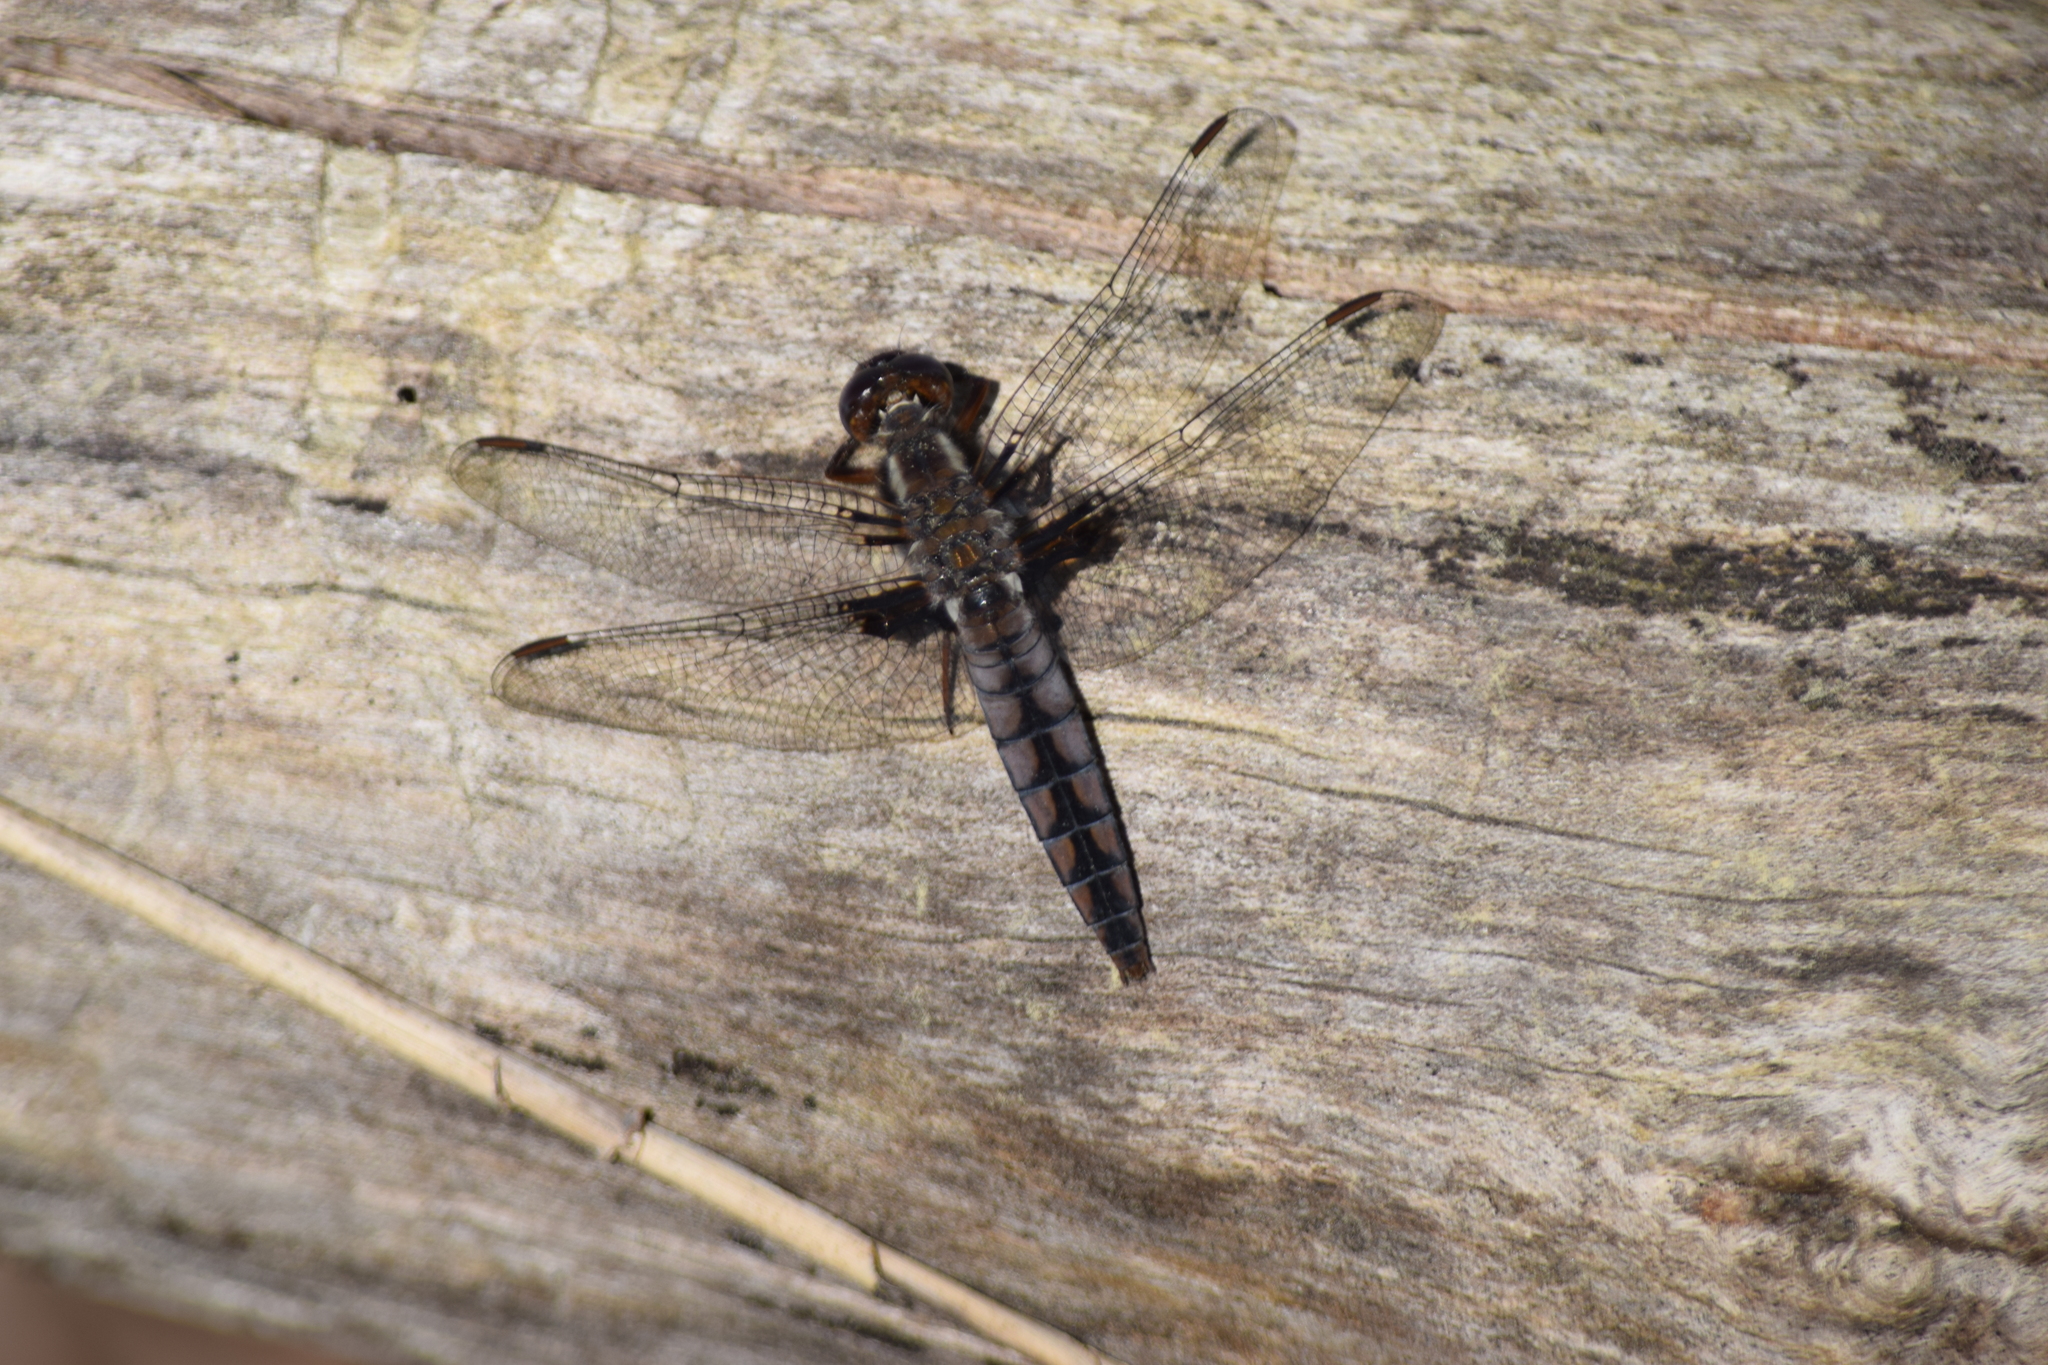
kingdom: Animalia
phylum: Arthropoda
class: Insecta
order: Odonata
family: Libellulidae
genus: Ladona
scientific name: Ladona deplanata
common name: Blue corporal
